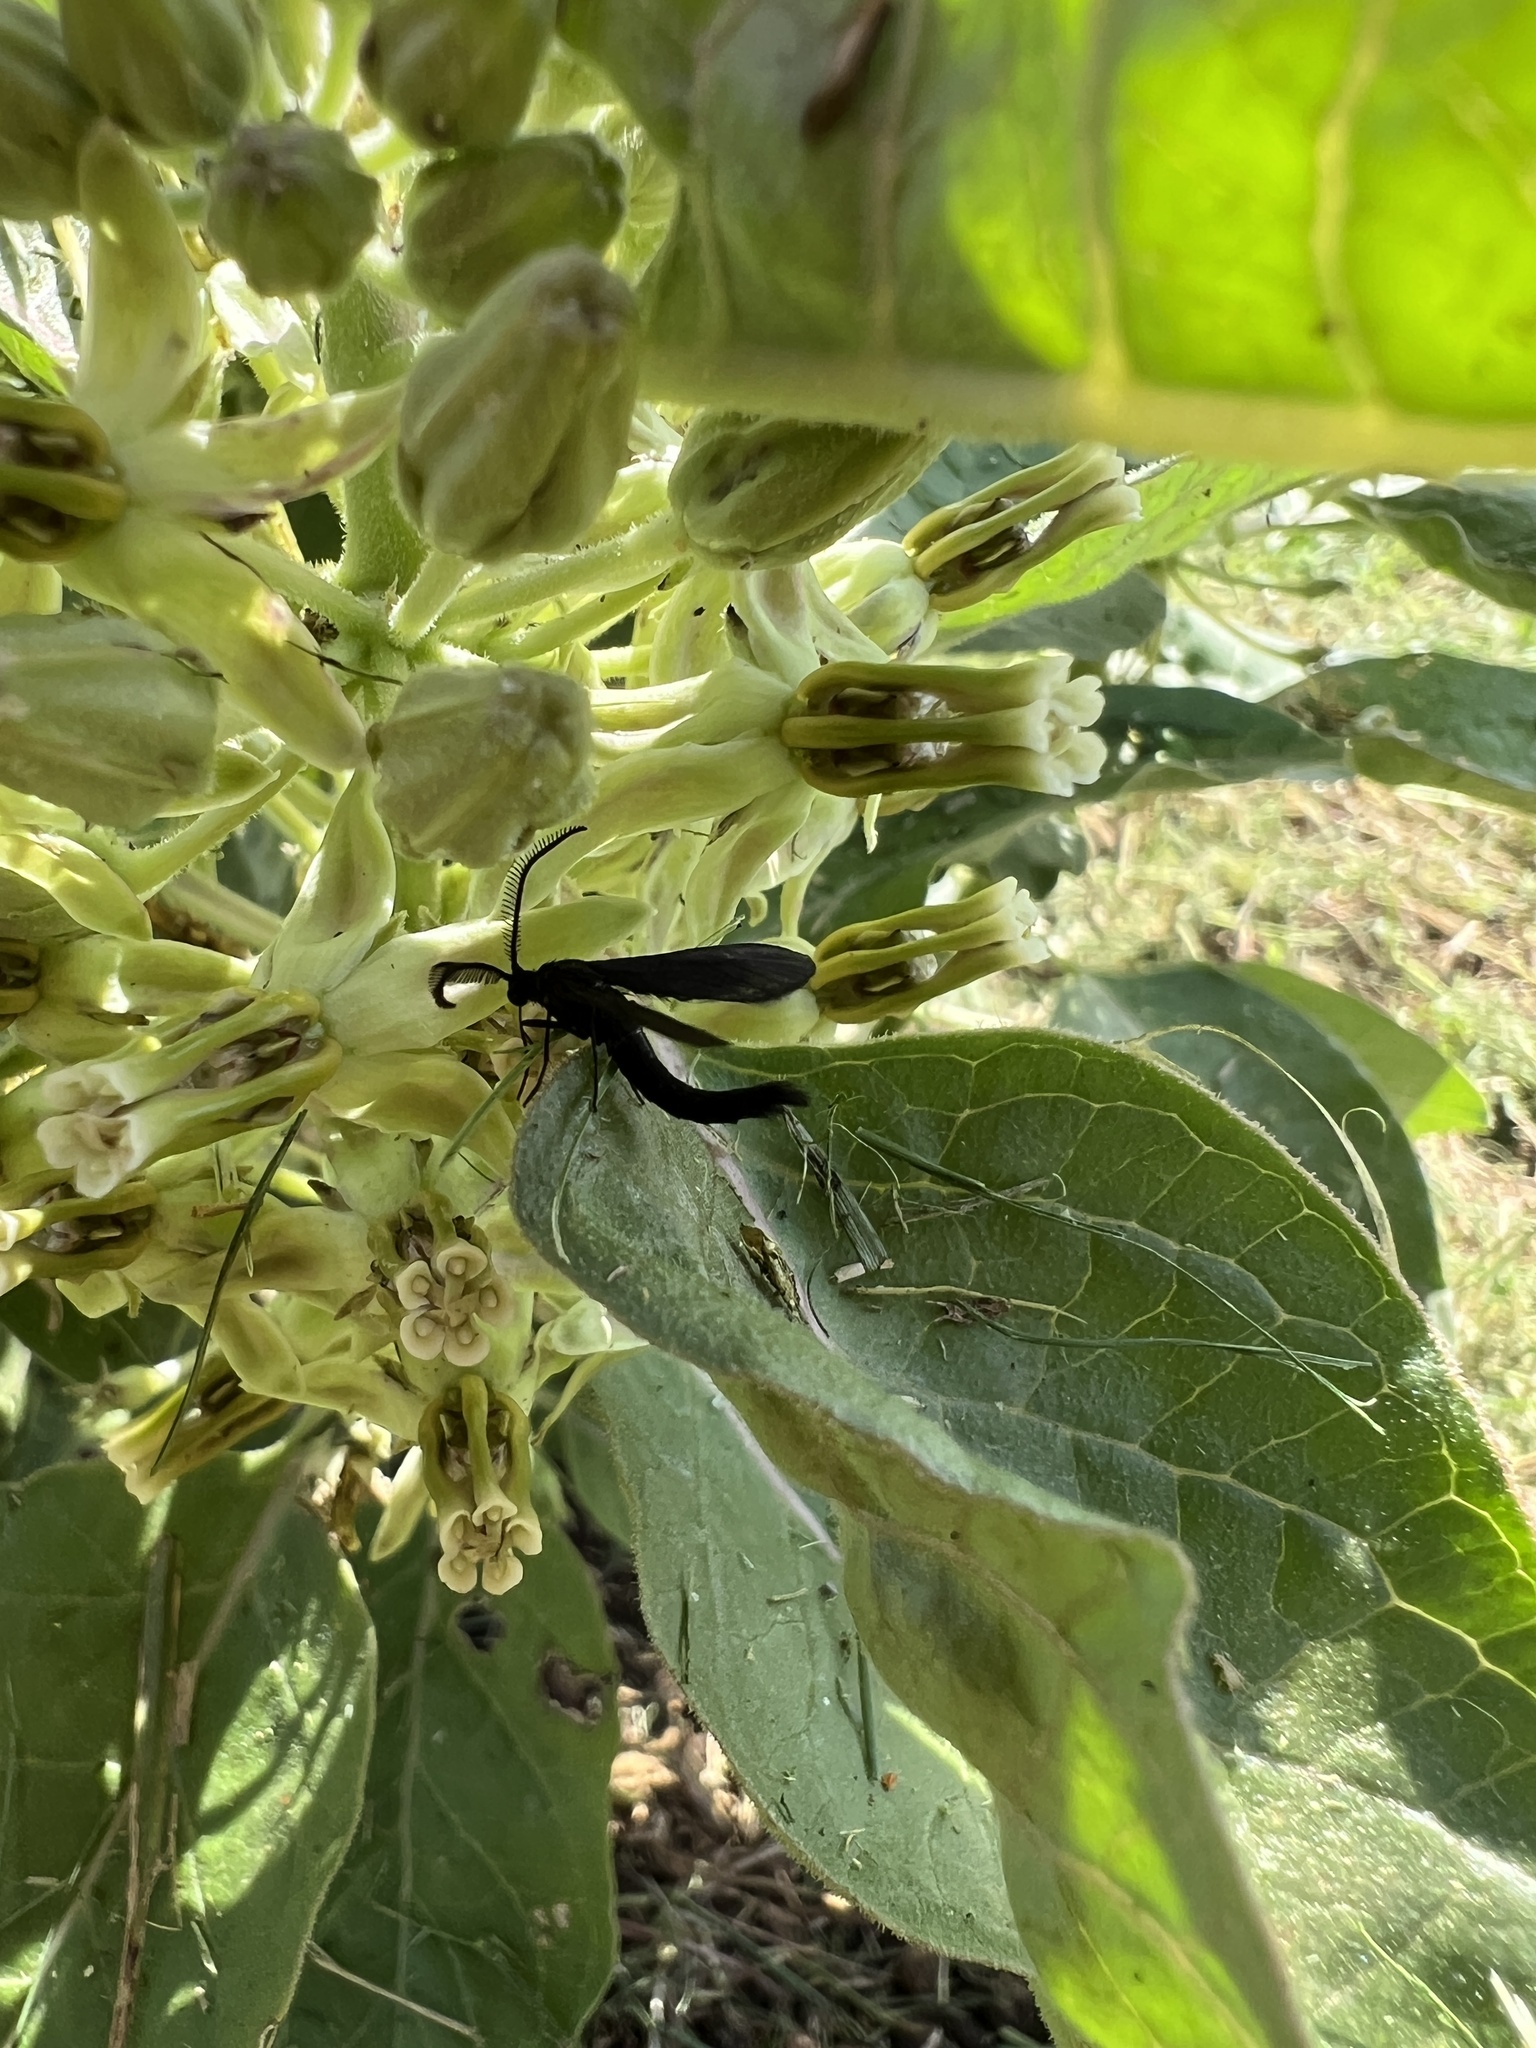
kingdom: Animalia
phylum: Arthropoda
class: Insecta
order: Lepidoptera
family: Zygaenidae
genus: Harrisina
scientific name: Harrisina coracina
